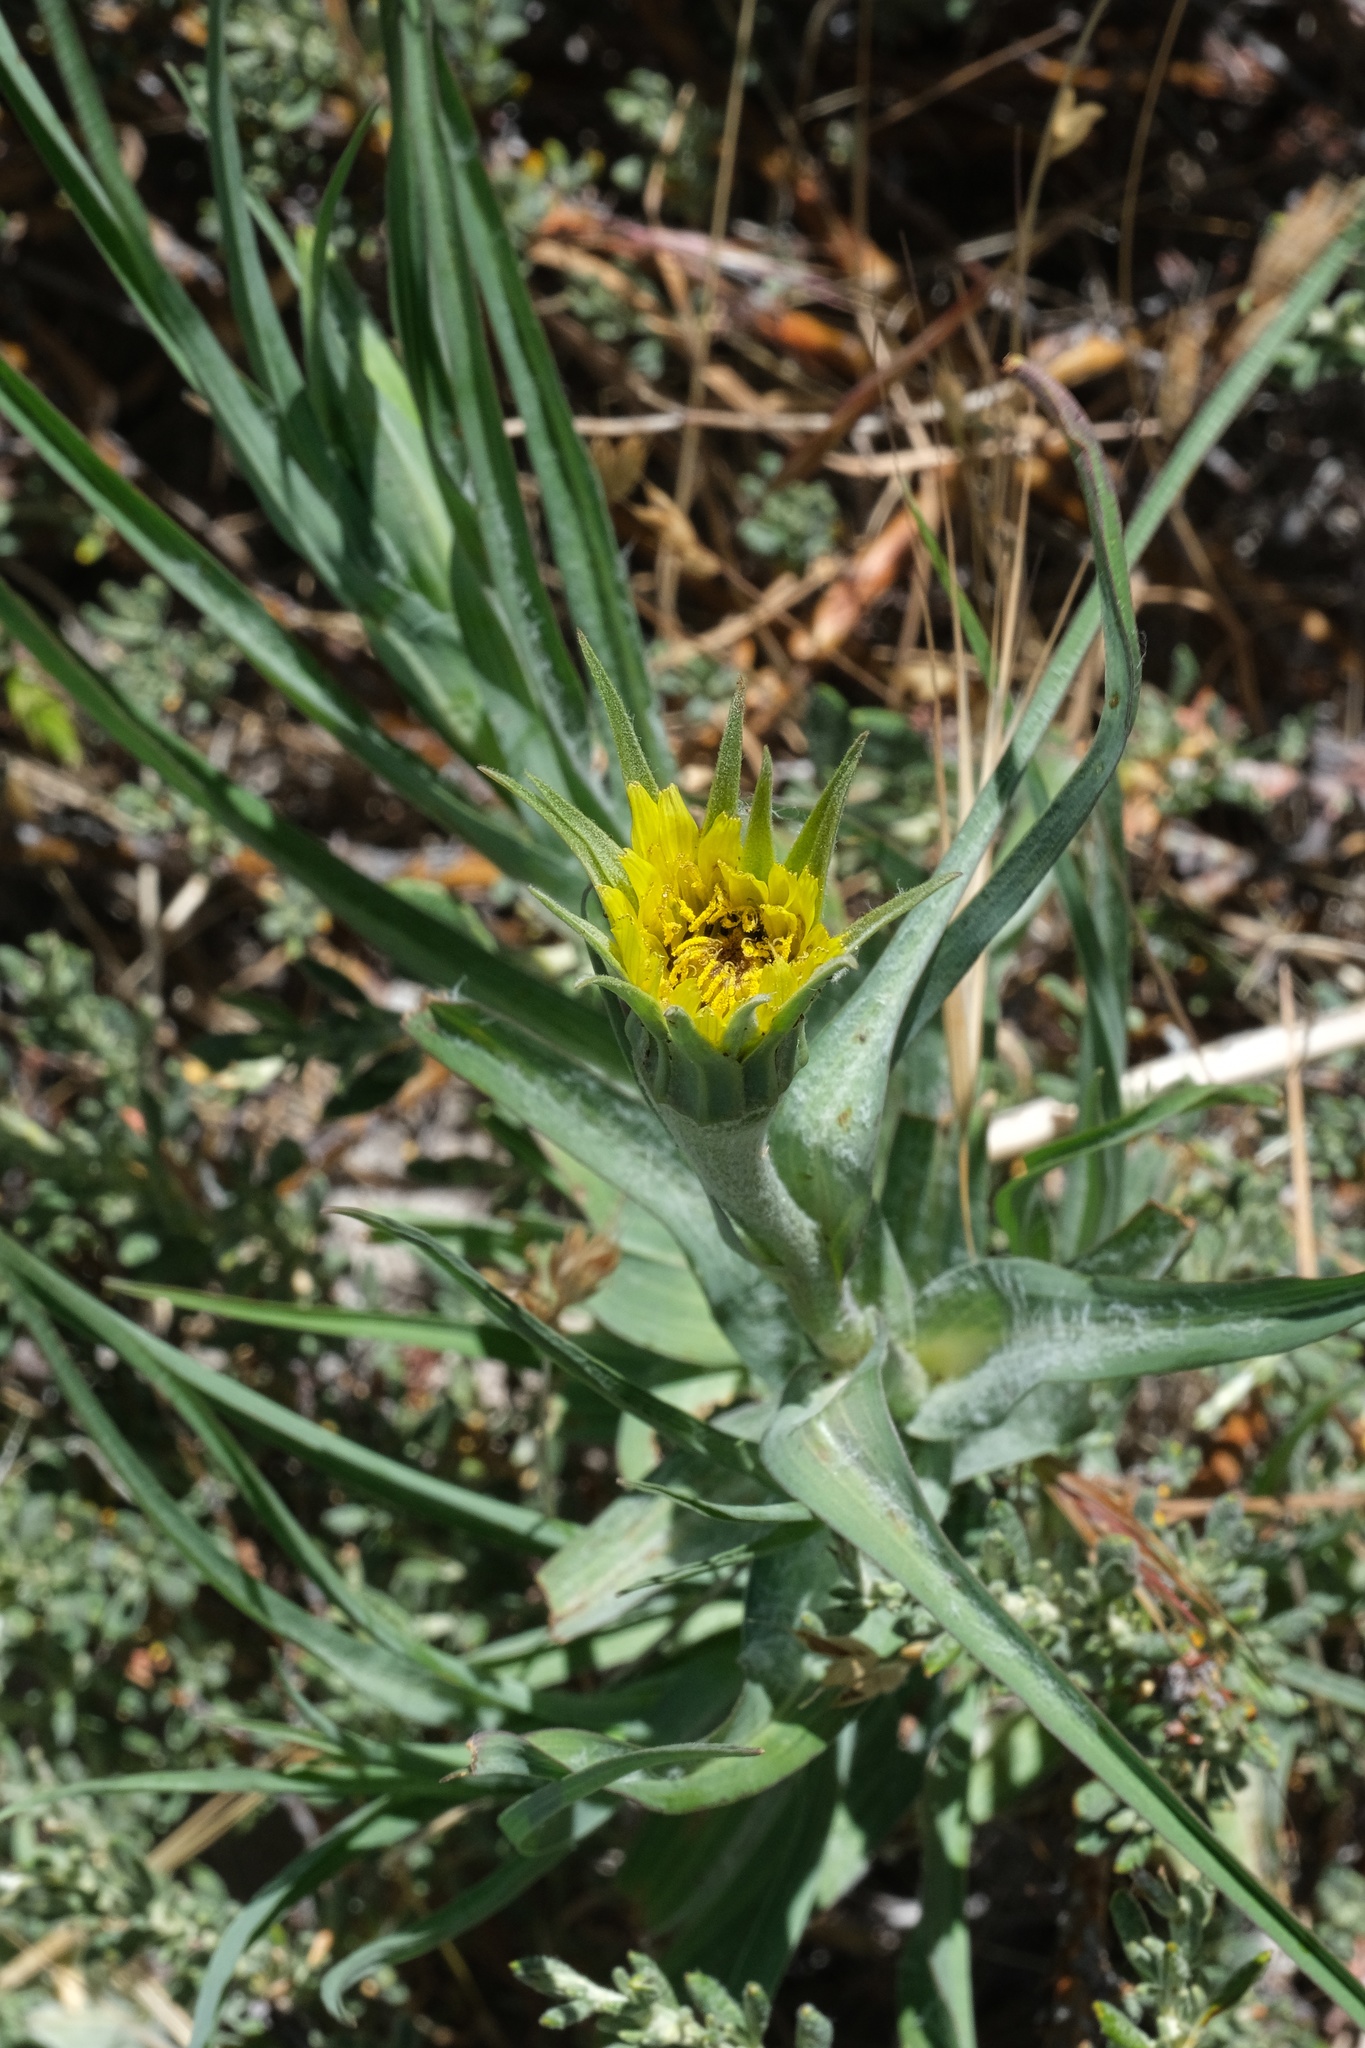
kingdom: Plantae
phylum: Tracheophyta
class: Magnoliopsida
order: Asterales
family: Asteraceae
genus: Tragopogon
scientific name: Tragopogon dubius
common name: Yellow salsify
